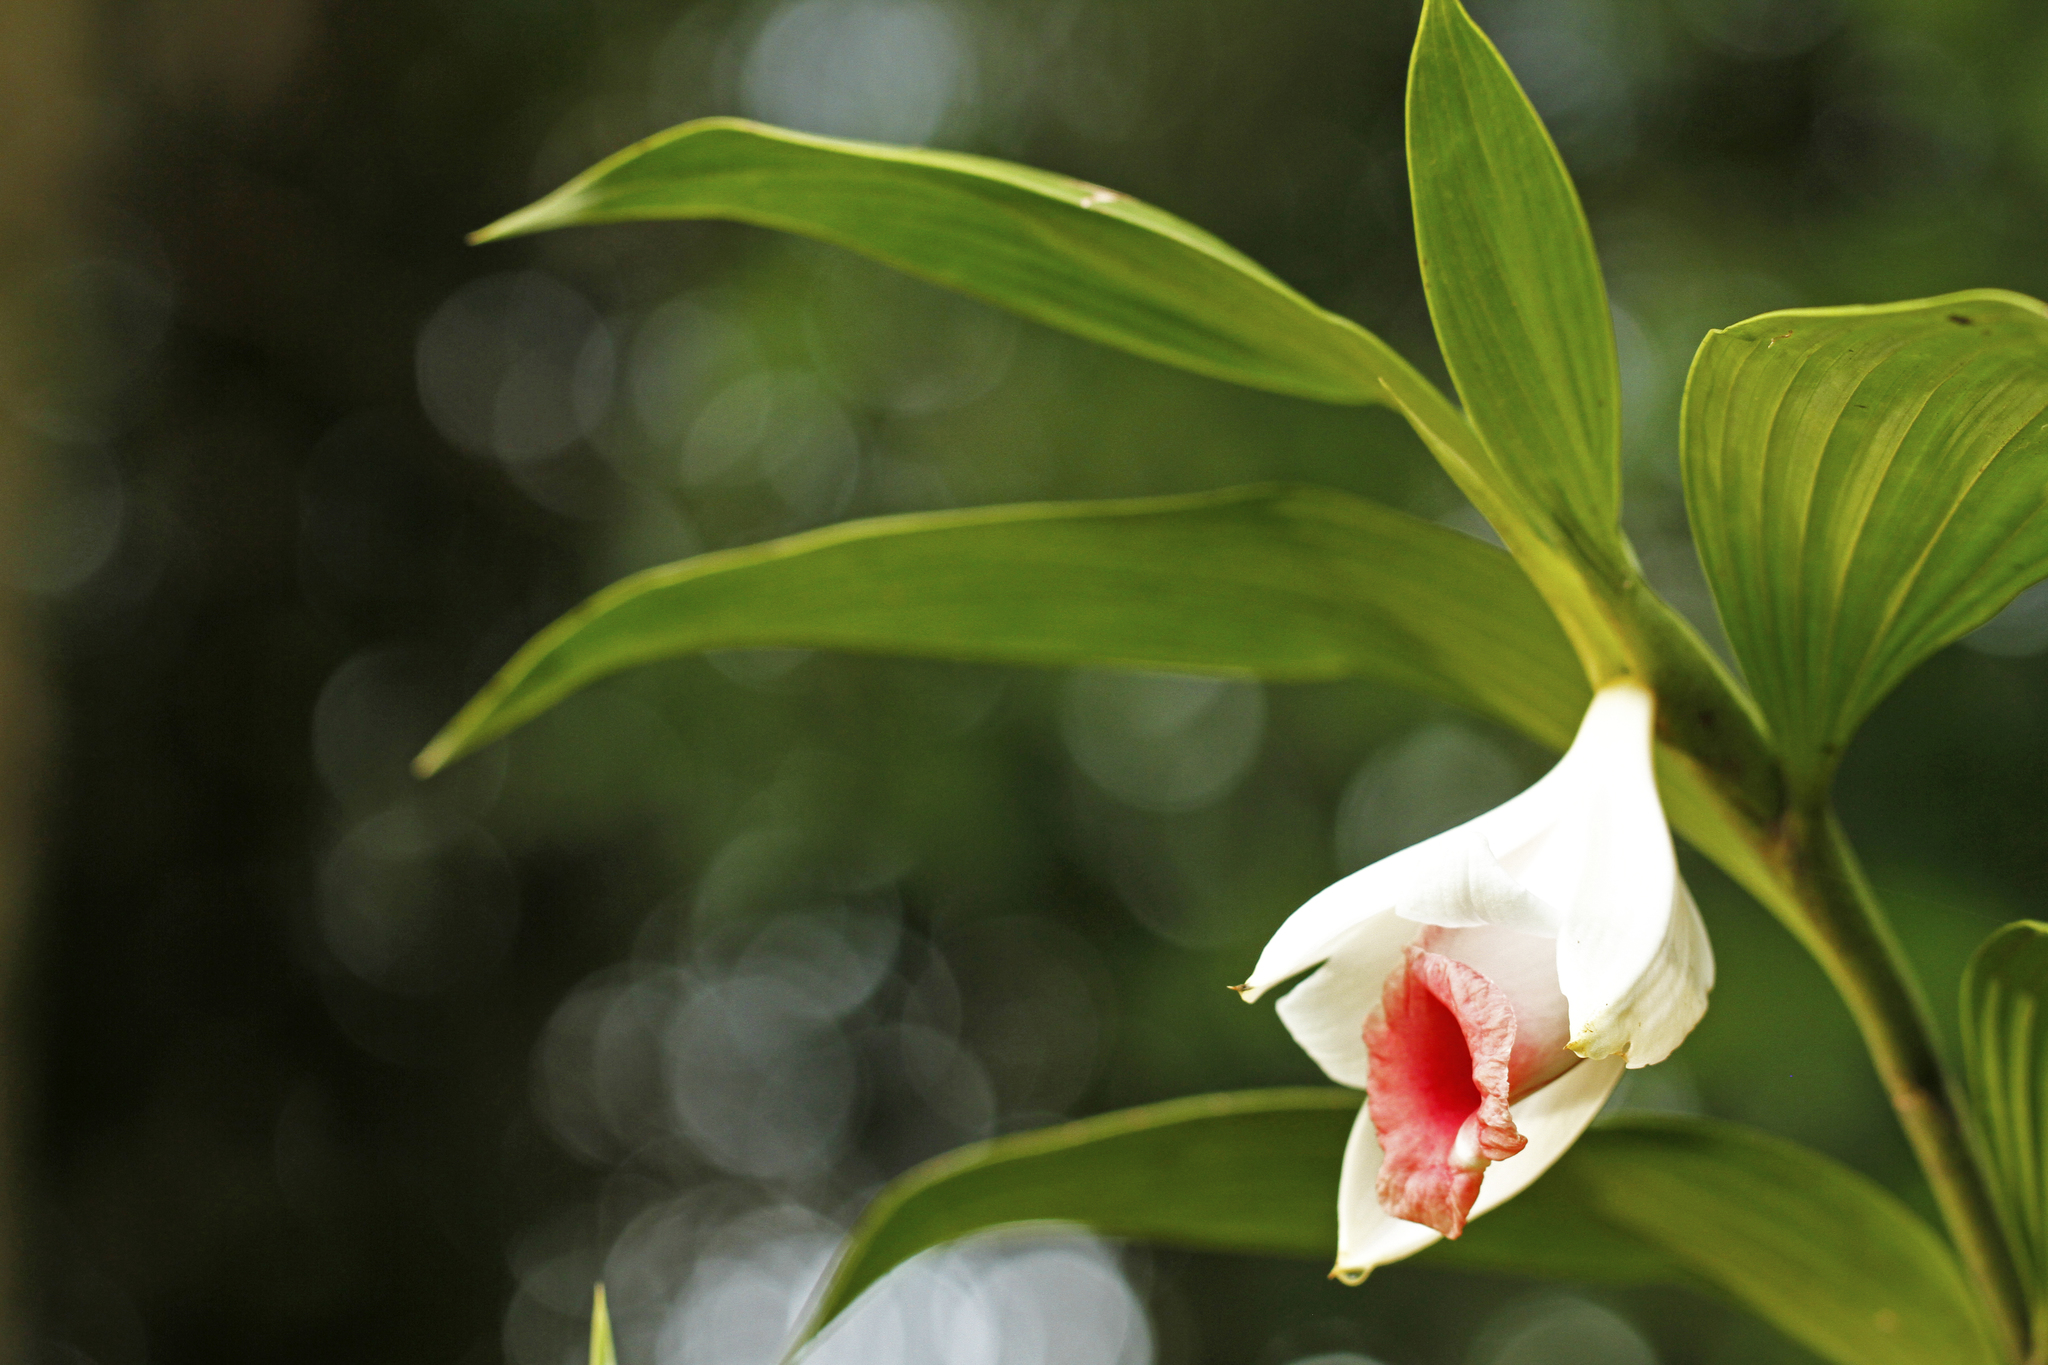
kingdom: Plantae
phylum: Tracheophyta
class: Liliopsida
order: Asparagales
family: Orchidaceae
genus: Sobralia
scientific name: Sobralia helleri
